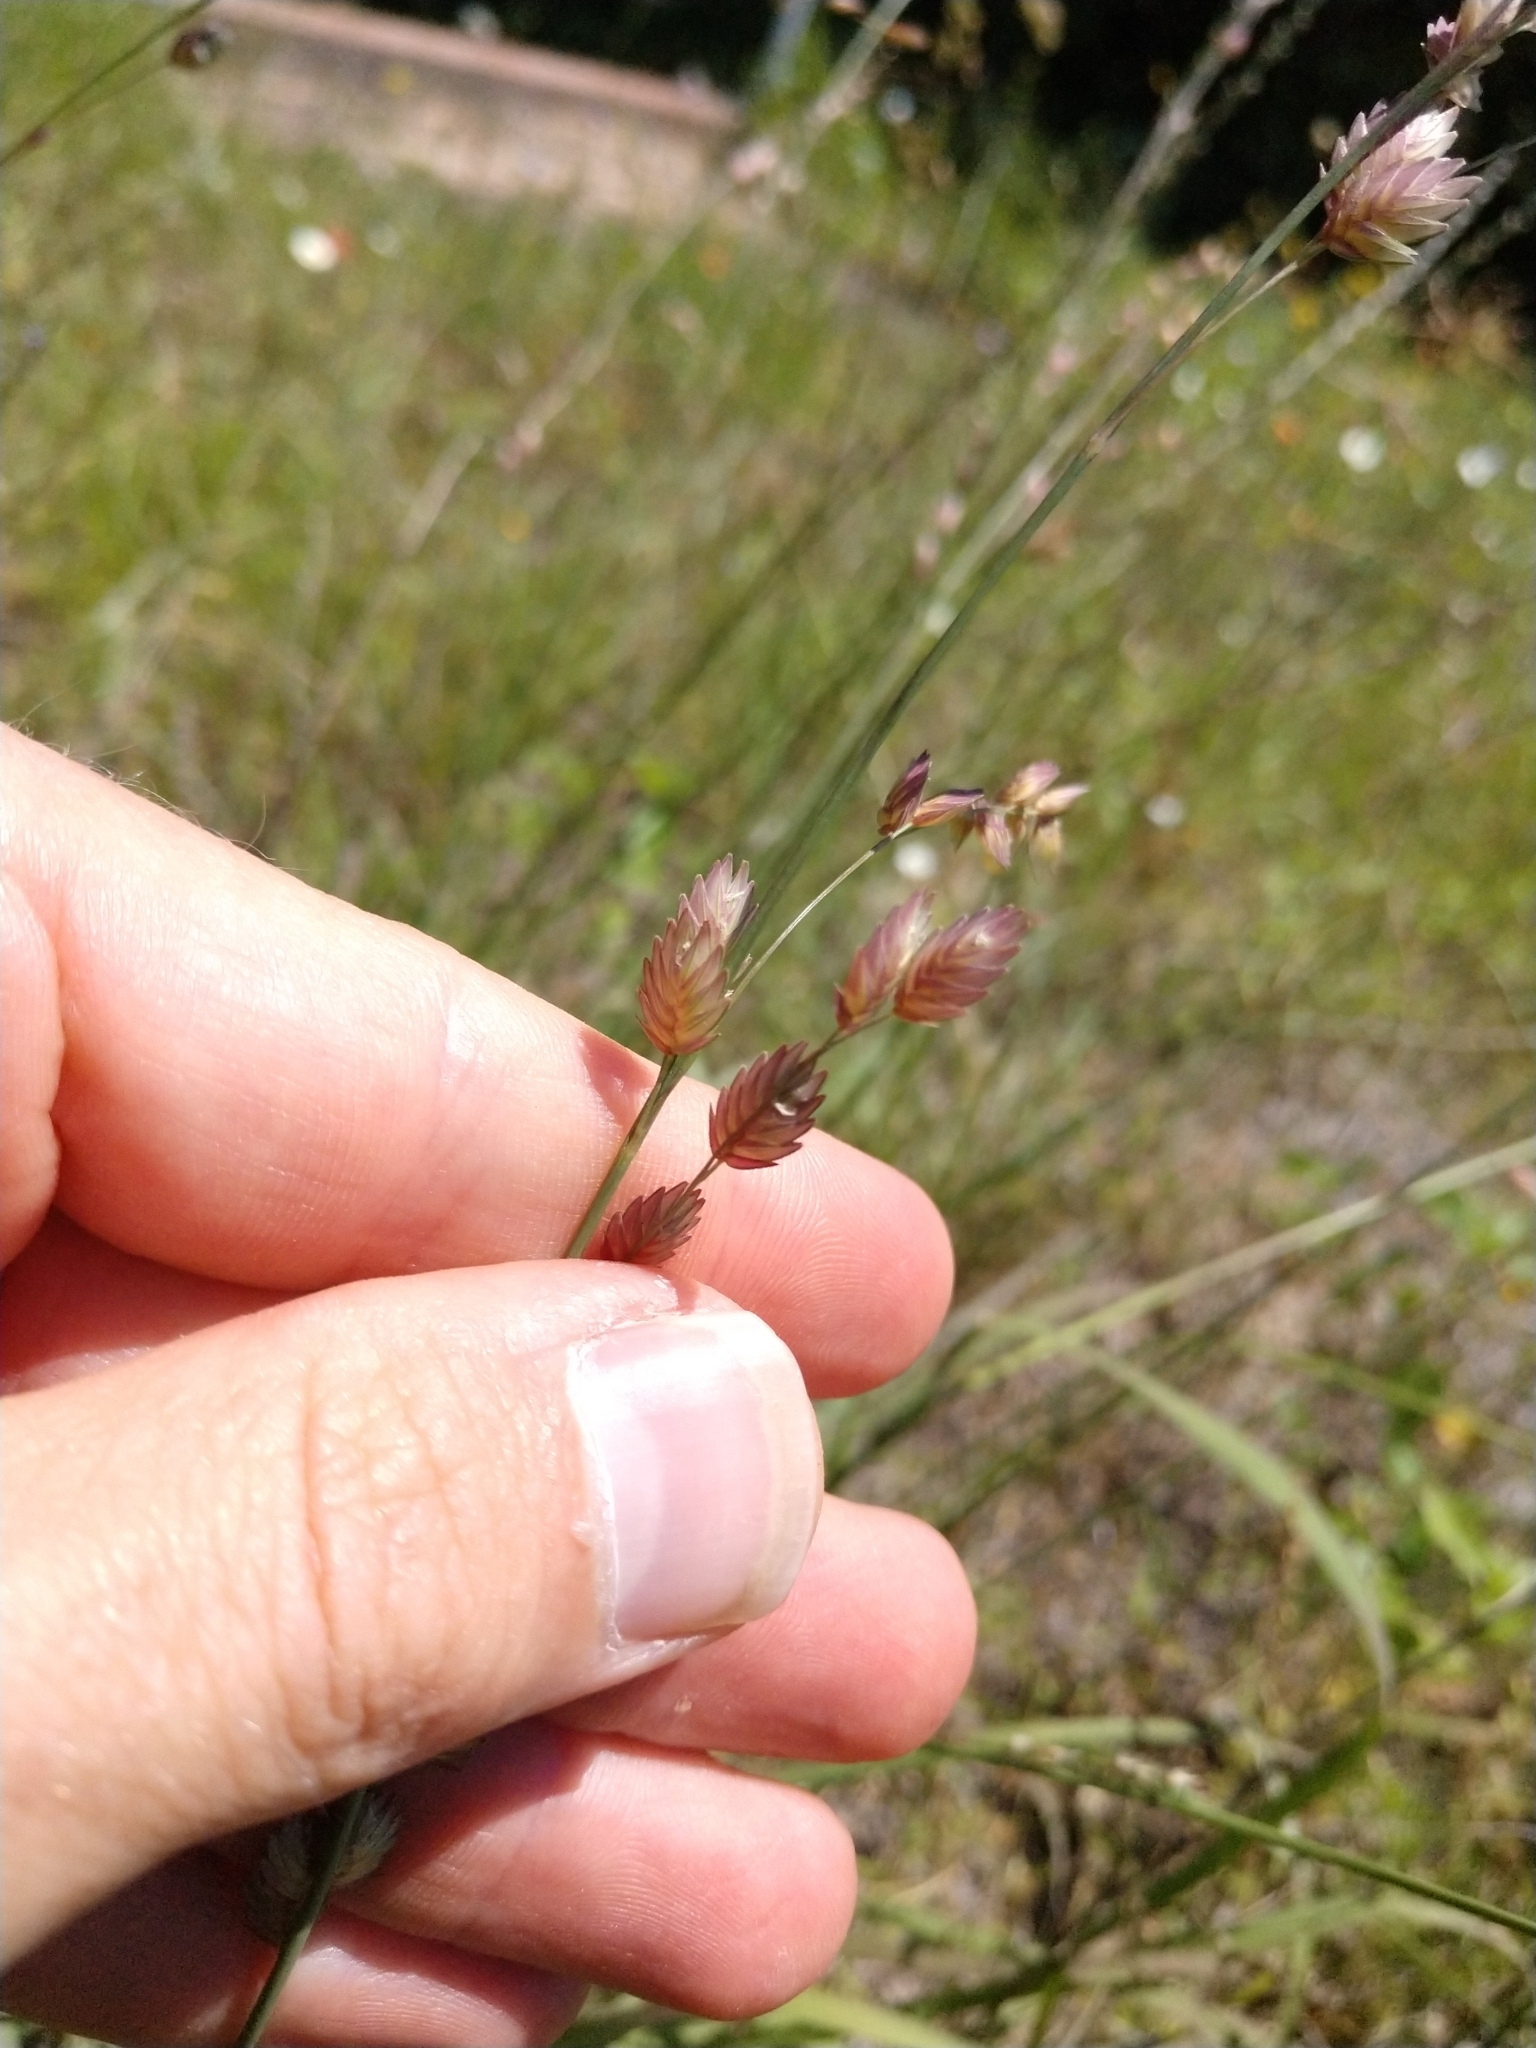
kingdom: Plantae
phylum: Tracheophyta
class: Liliopsida
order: Poales
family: Poaceae
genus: Eragrostis
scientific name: Eragrostis superba
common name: Wilman lovegrass
